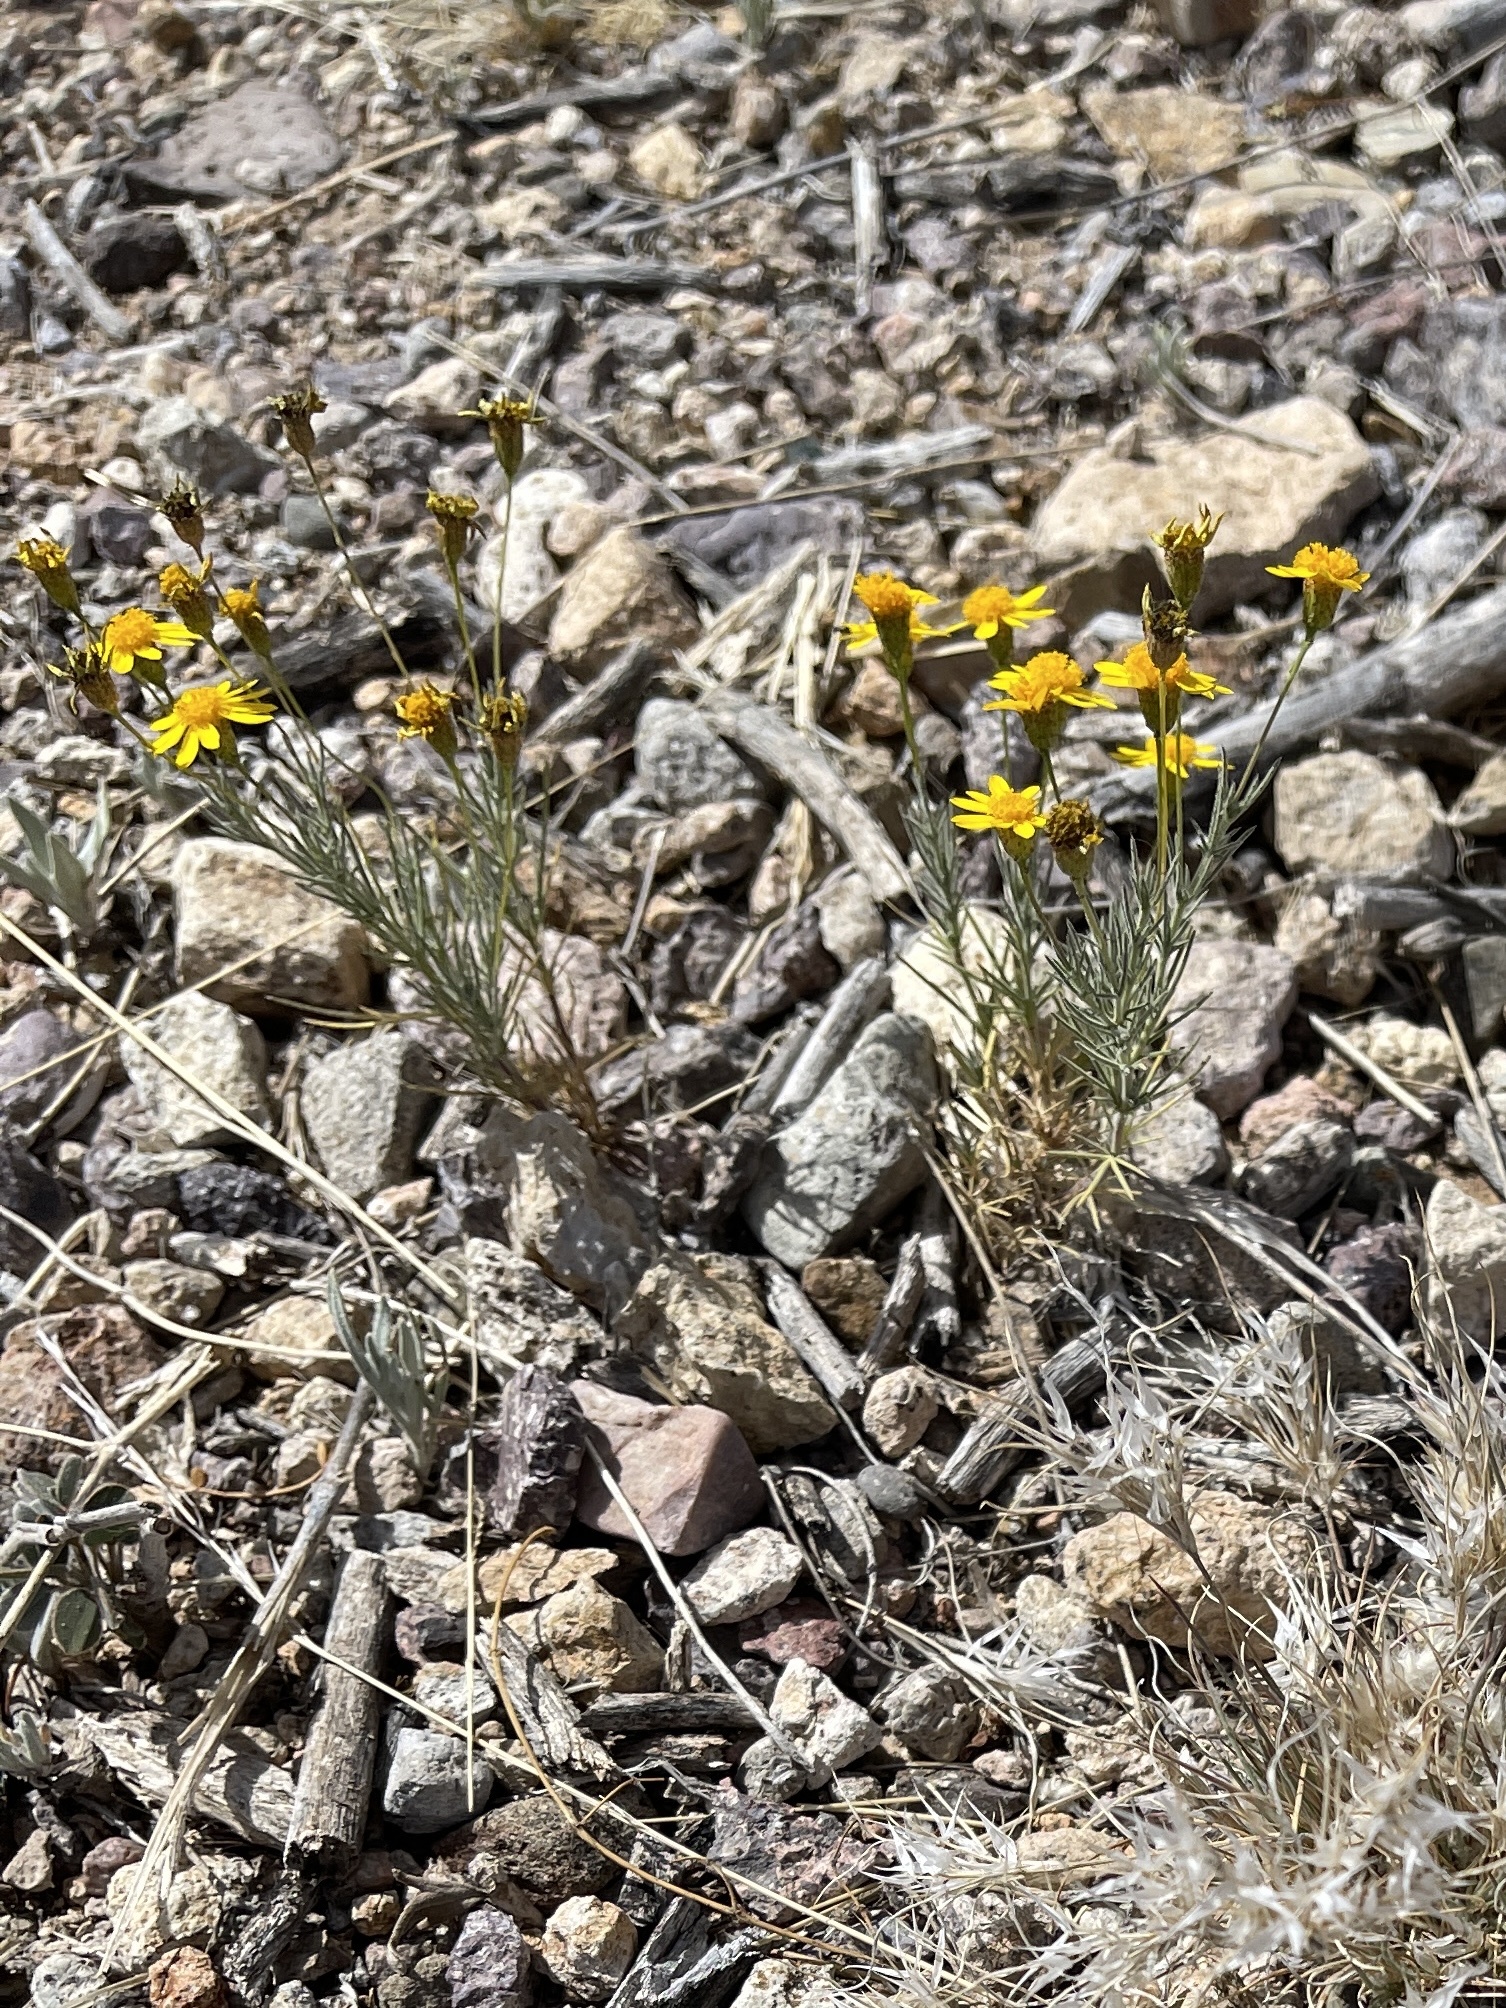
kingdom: Plantae
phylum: Tracheophyta
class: Magnoliopsida
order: Asterales
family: Asteraceae
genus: Thymophylla
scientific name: Thymophylla pentachaeta
